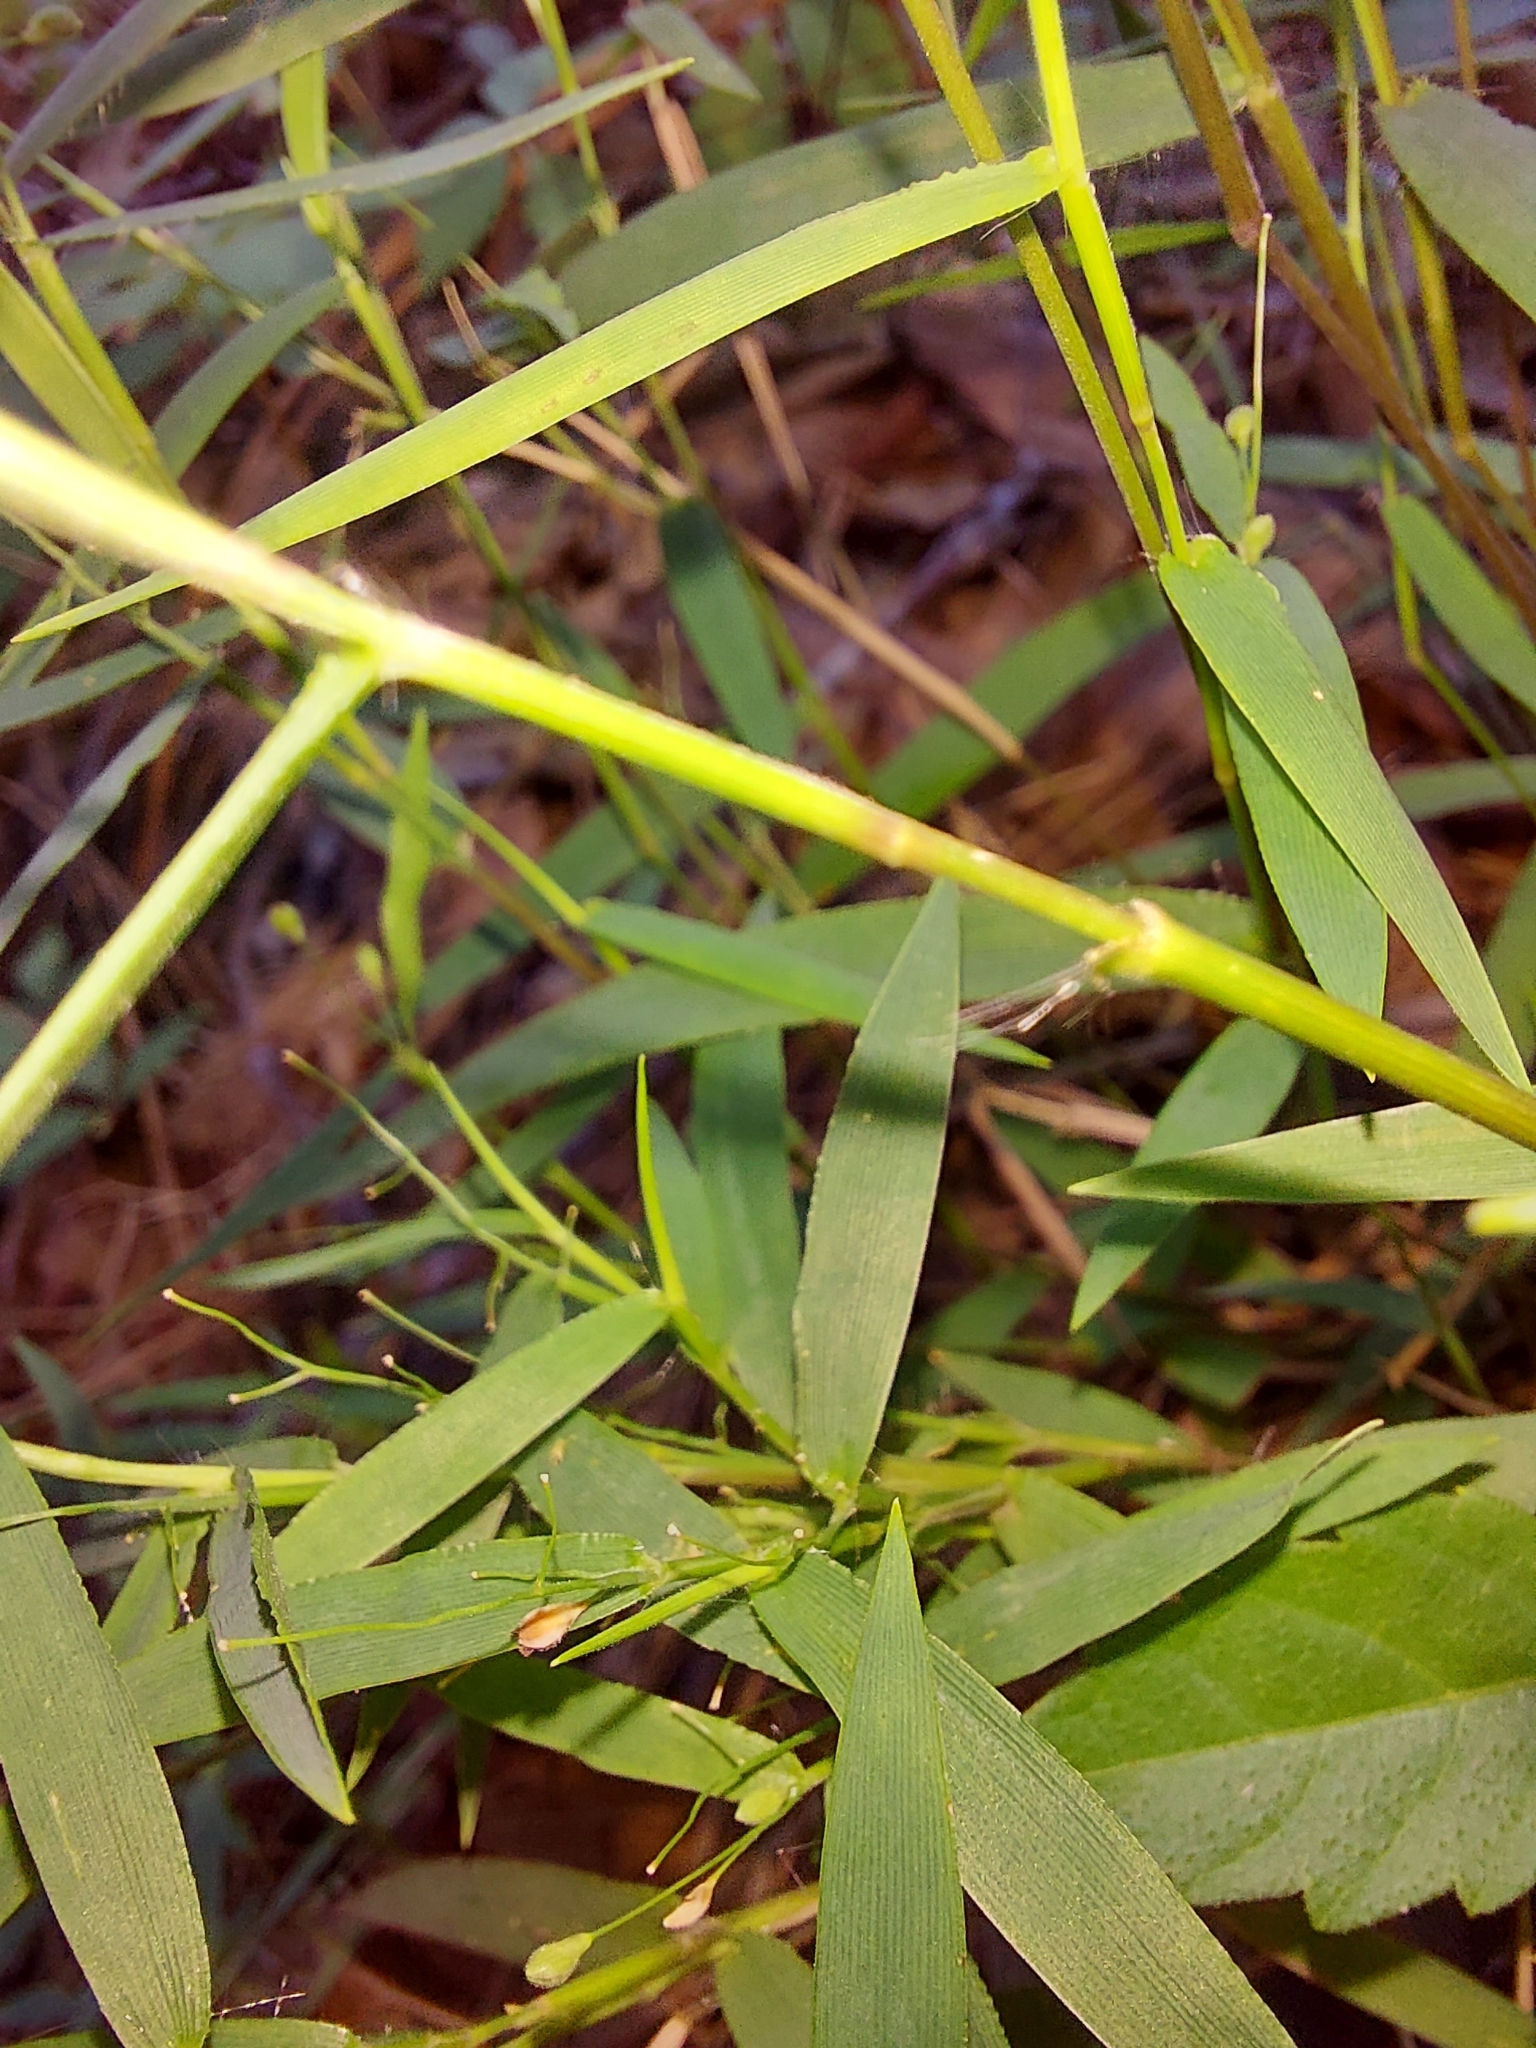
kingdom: Plantae
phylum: Tracheophyta
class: Liliopsida
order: Poales
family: Poaceae
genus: Dichanthelium
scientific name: Dichanthelium patulum
